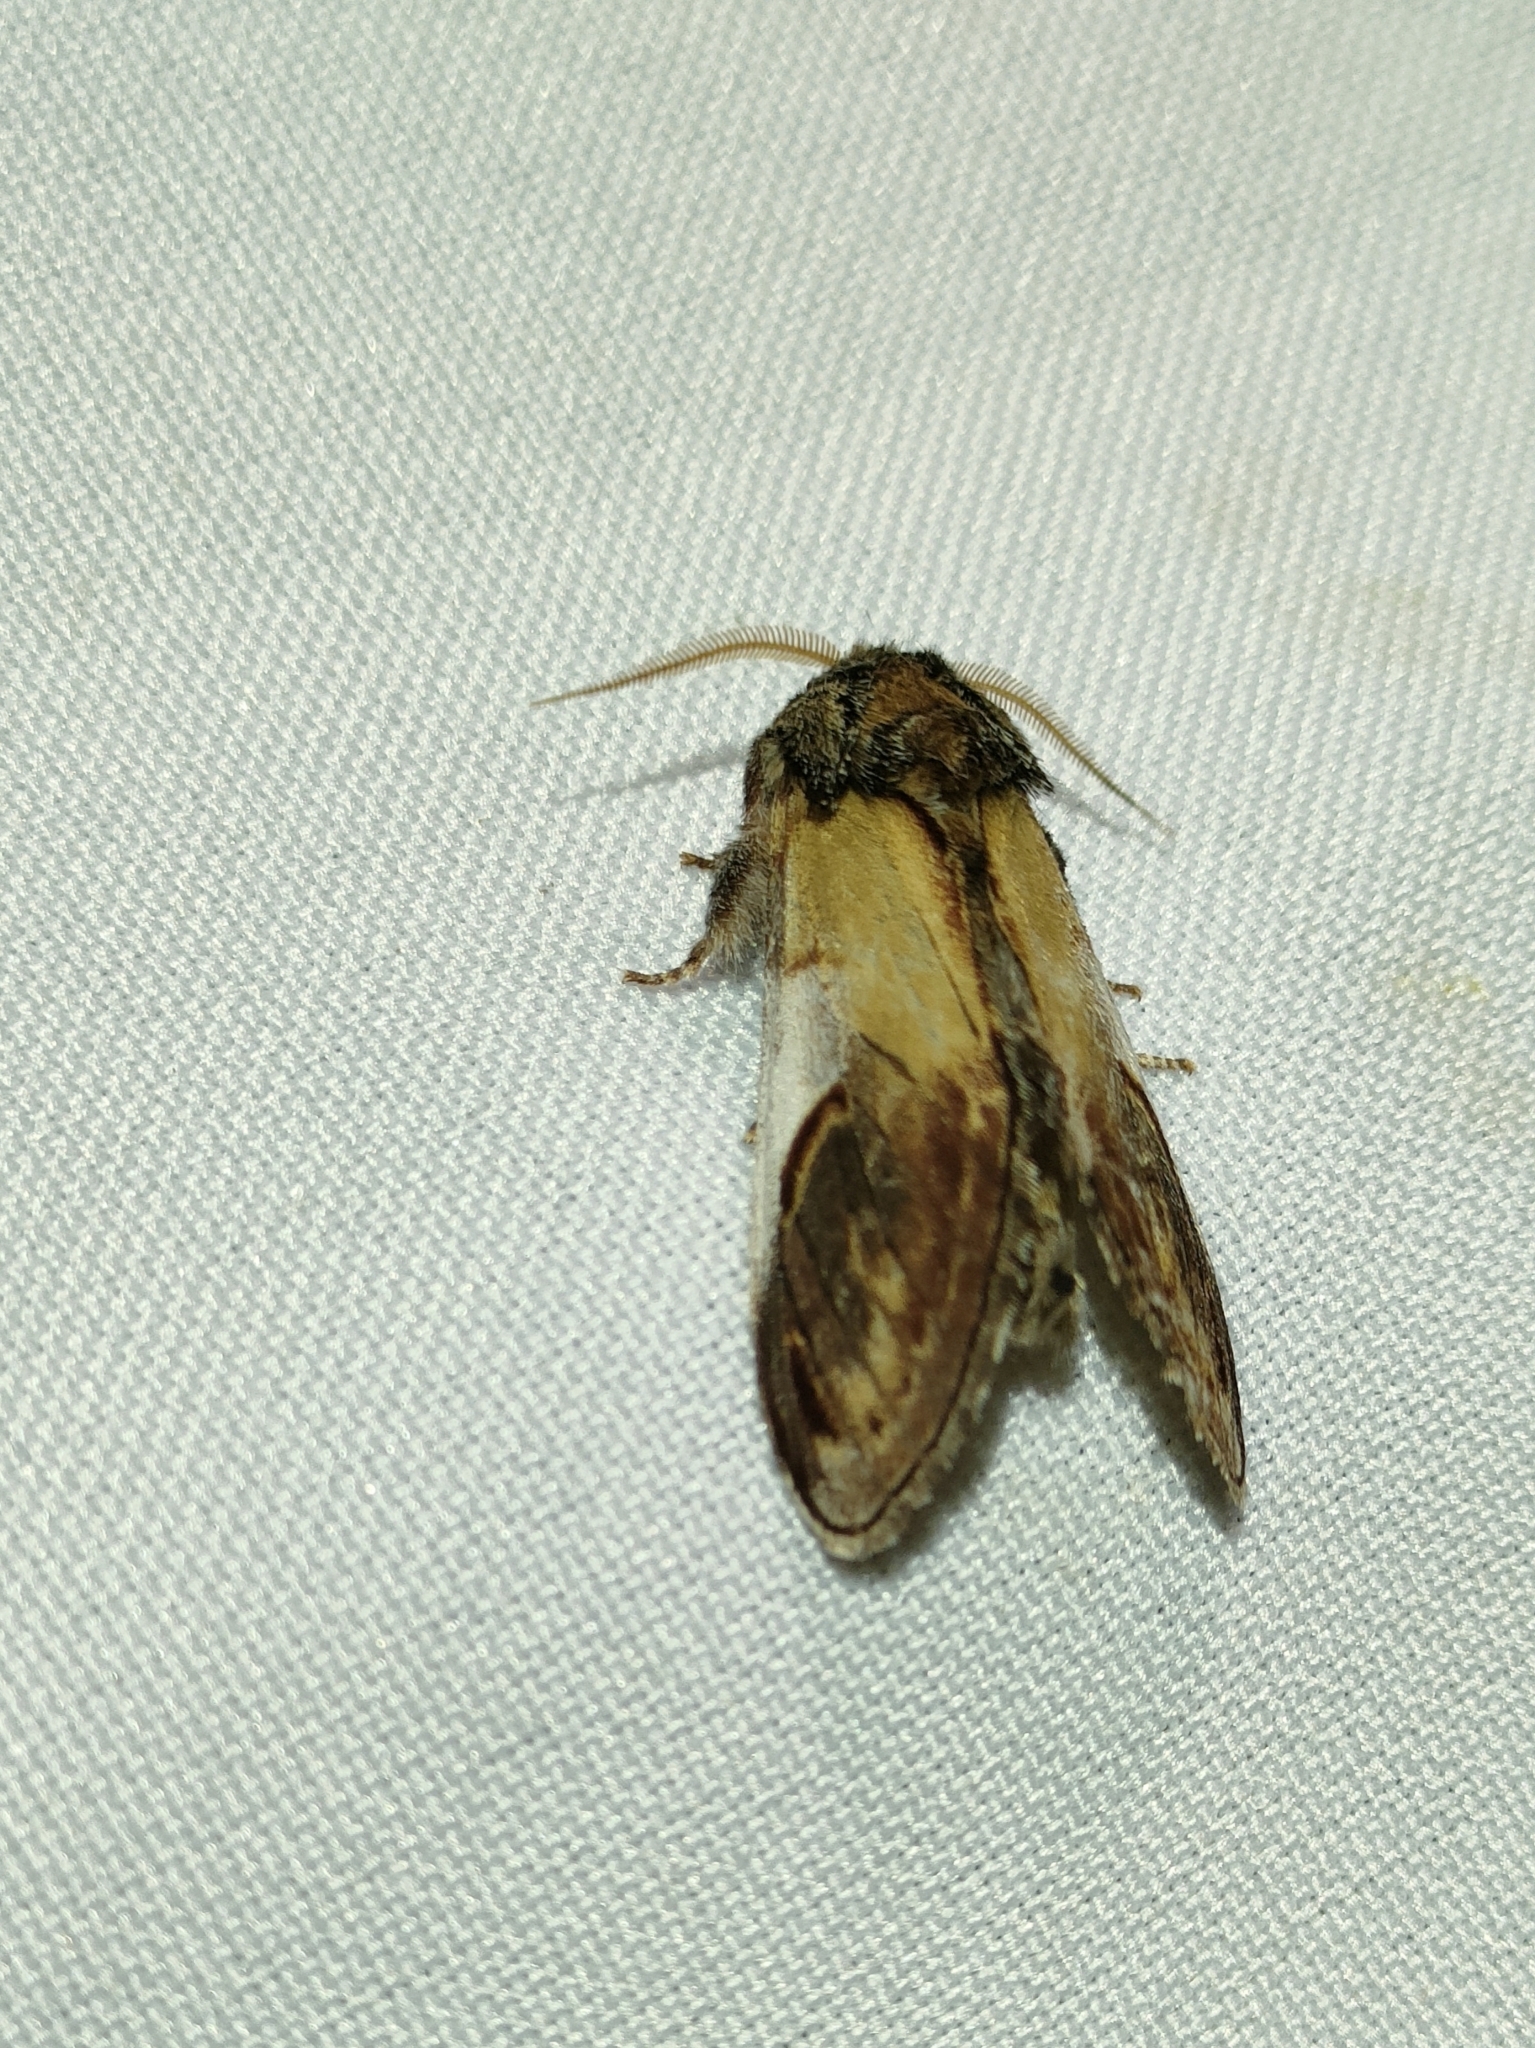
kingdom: Animalia
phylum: Arthropoda
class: Insecta
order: Lepidoptera
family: Notodontidae
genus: Notodonta
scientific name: Notodonta ziczac
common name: Pebble prominent
